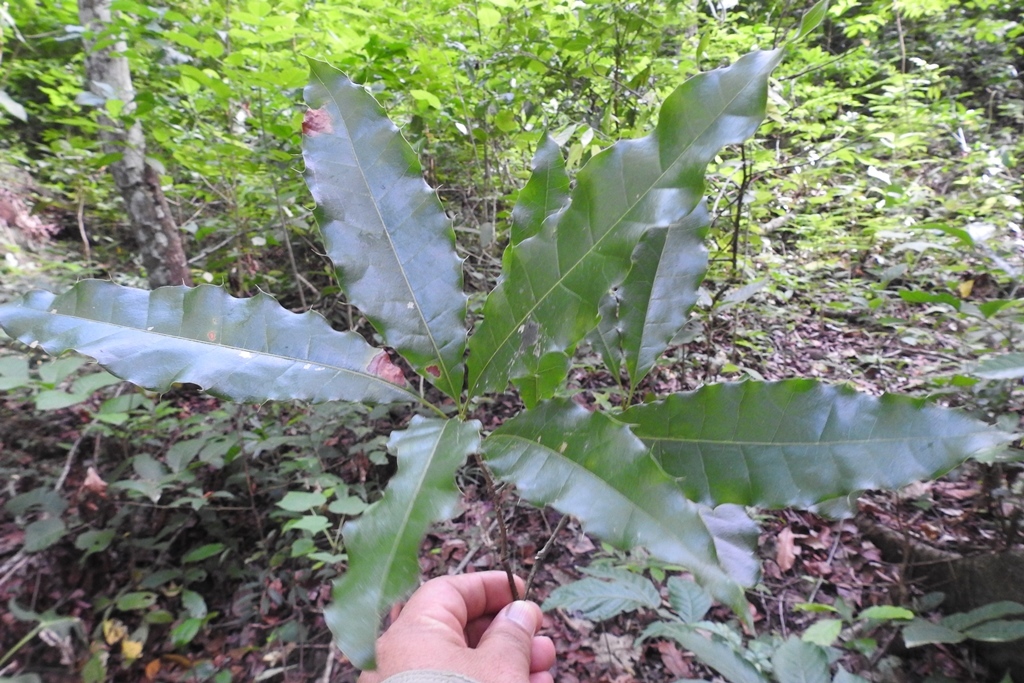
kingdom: Plantae
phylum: Tracheophyta
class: Magnoliopsida
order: Fagales
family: Fagaceae
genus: Quercus
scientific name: Quercus xalapensis
